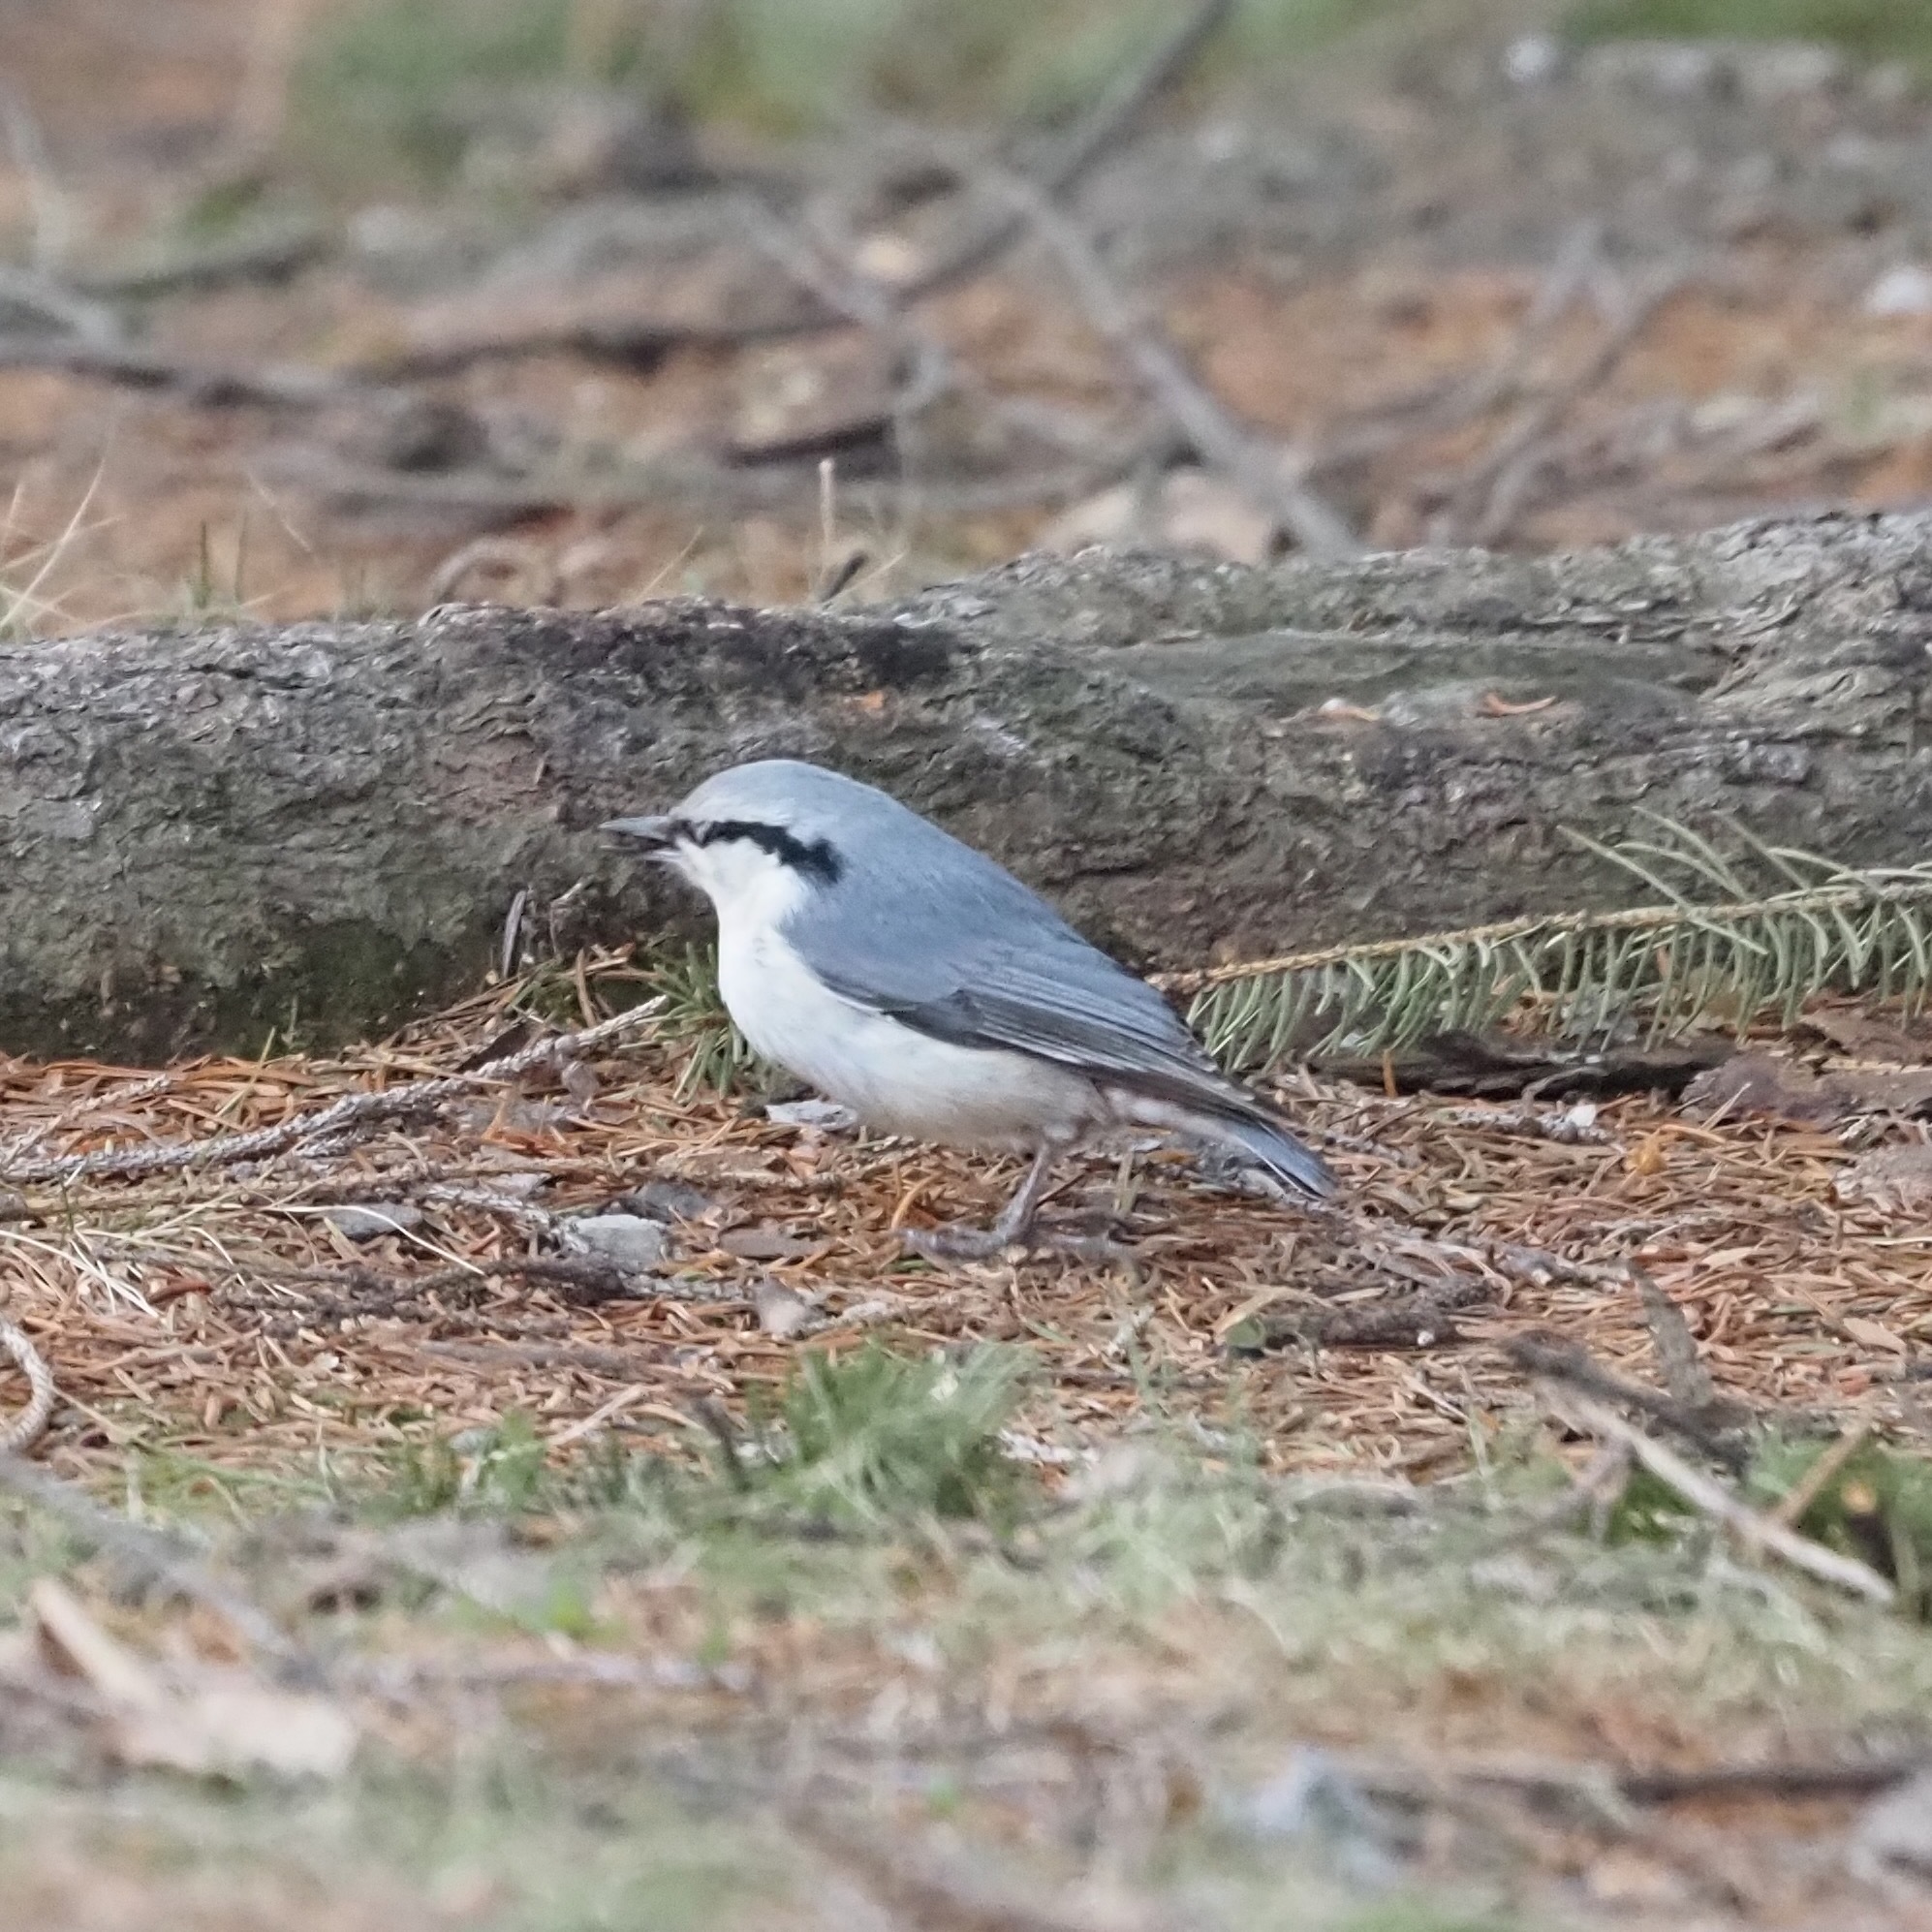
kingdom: Animalia
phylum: Chordata
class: Aves
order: Passeriformes
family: Sittidae
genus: Sitta
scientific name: Sitta europaea
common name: Eurasian nuthatch
